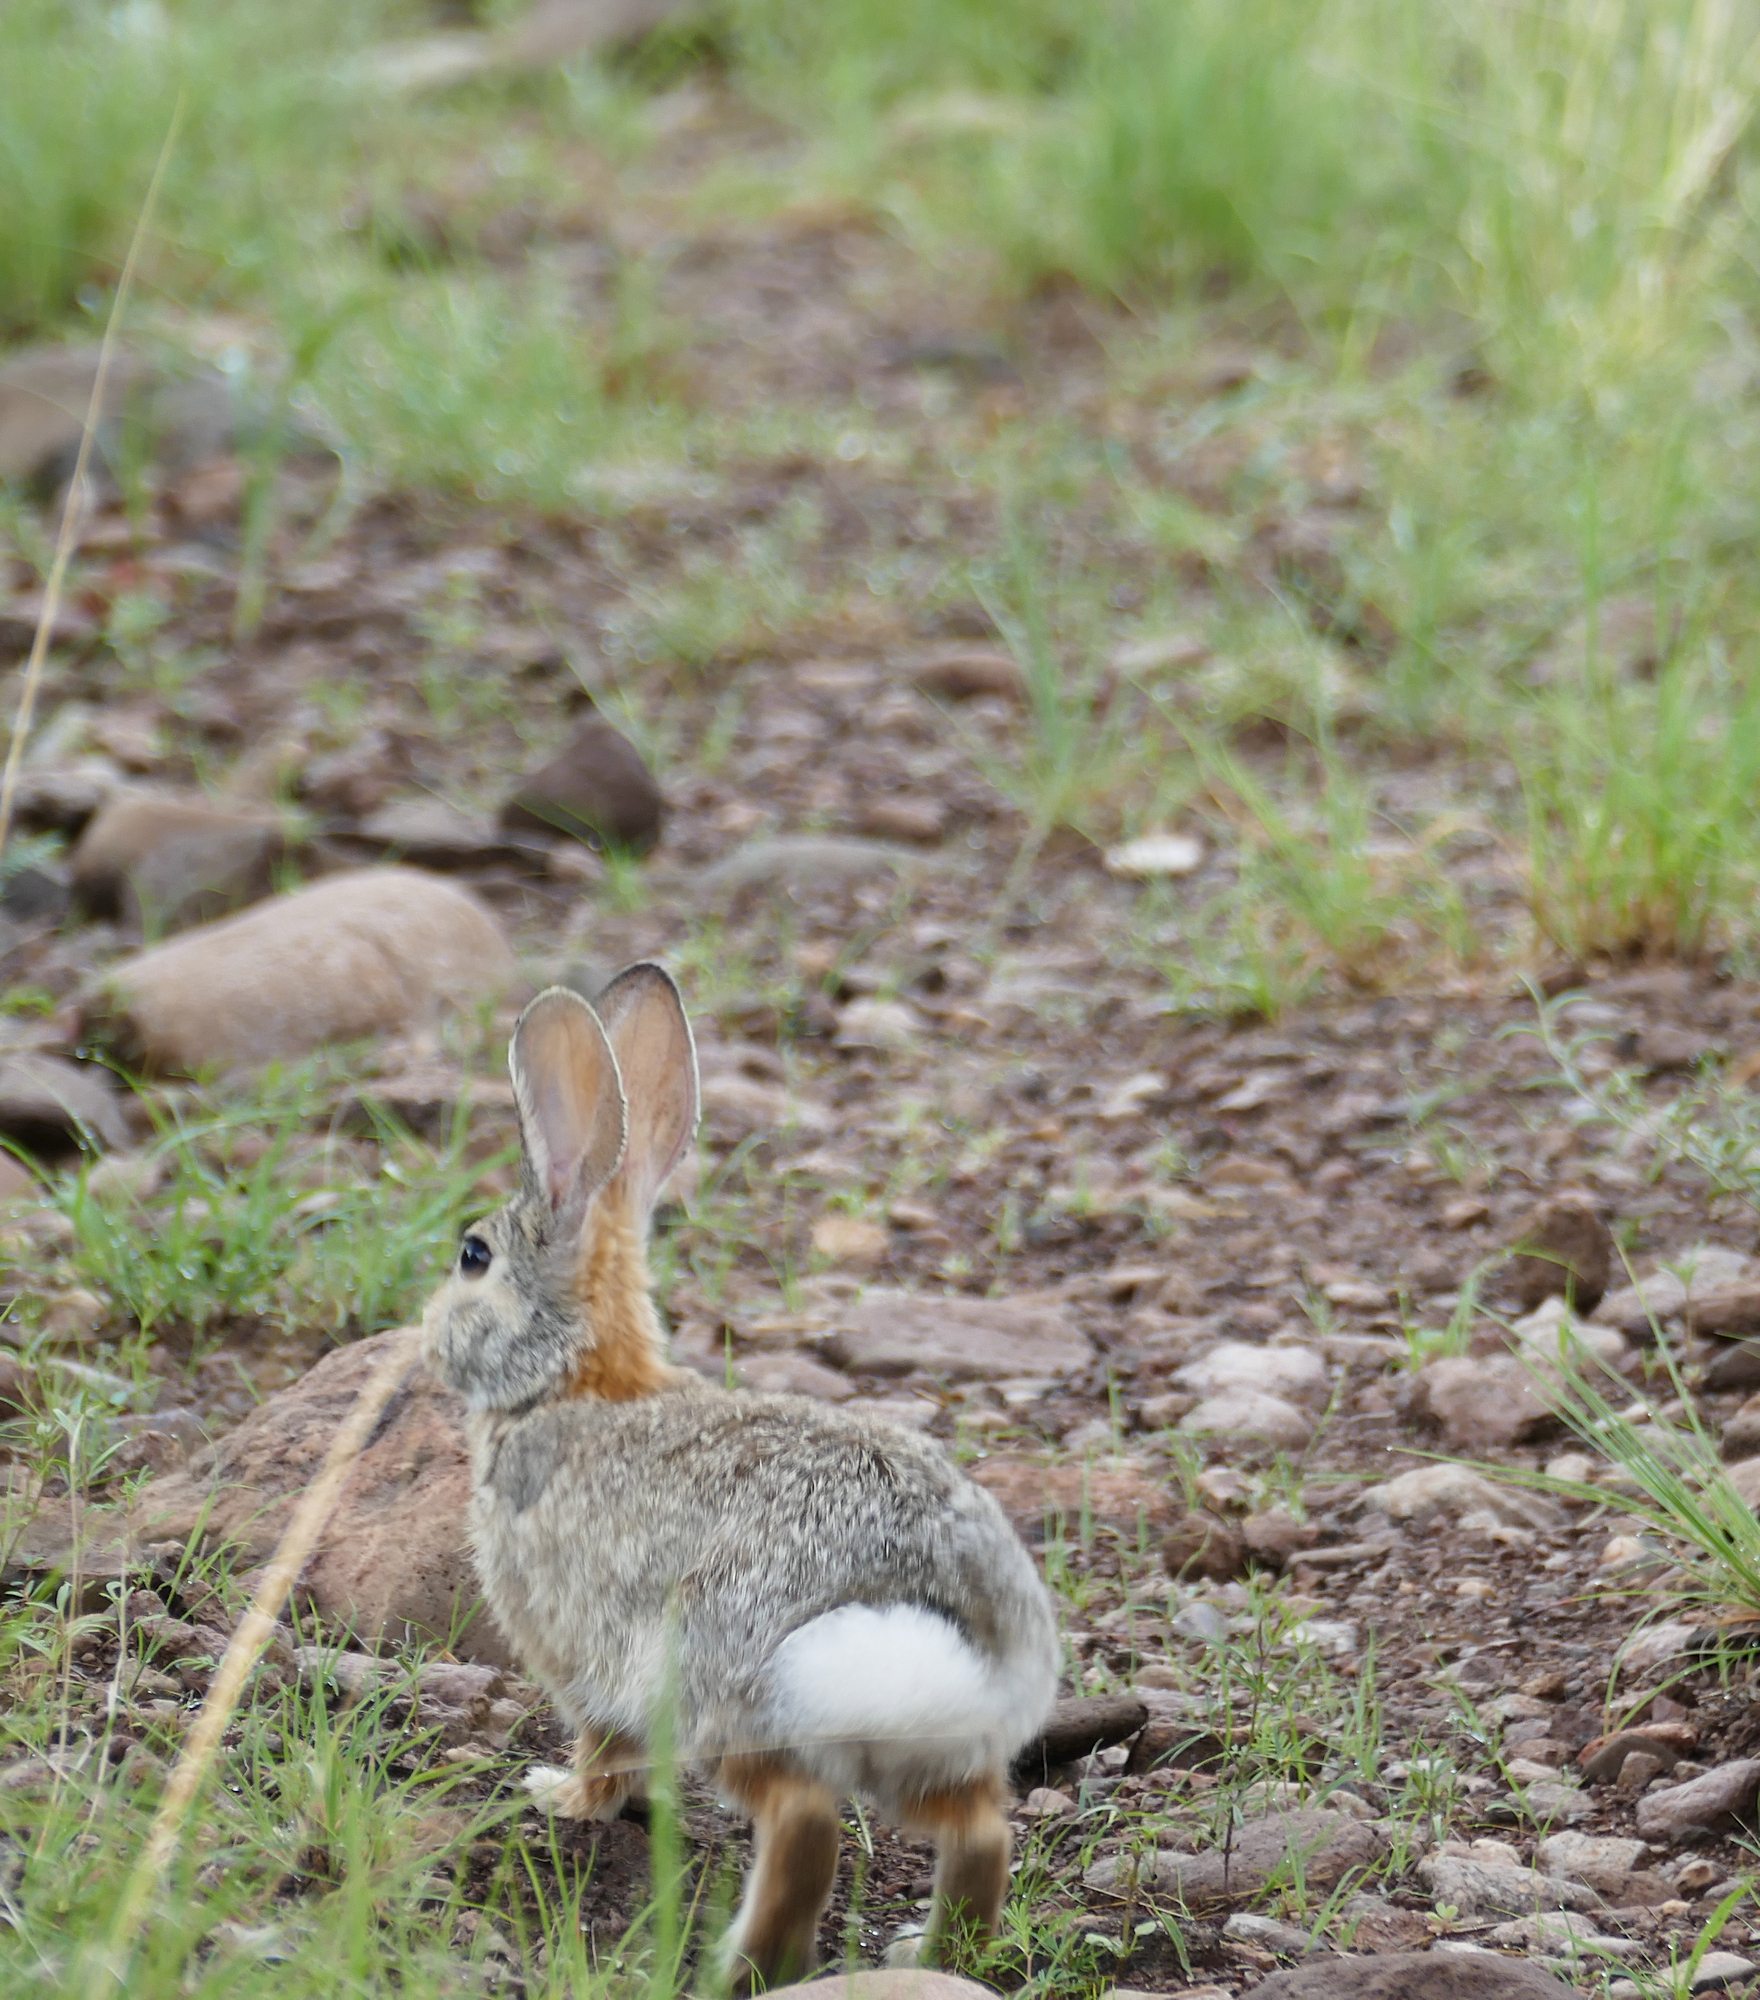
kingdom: Animalia
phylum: Chordata
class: Mammalia
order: Lagomorpha
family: Leporidae
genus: Sylvilagus
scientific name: Sylvilagus audubonii
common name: Desert cottontail
